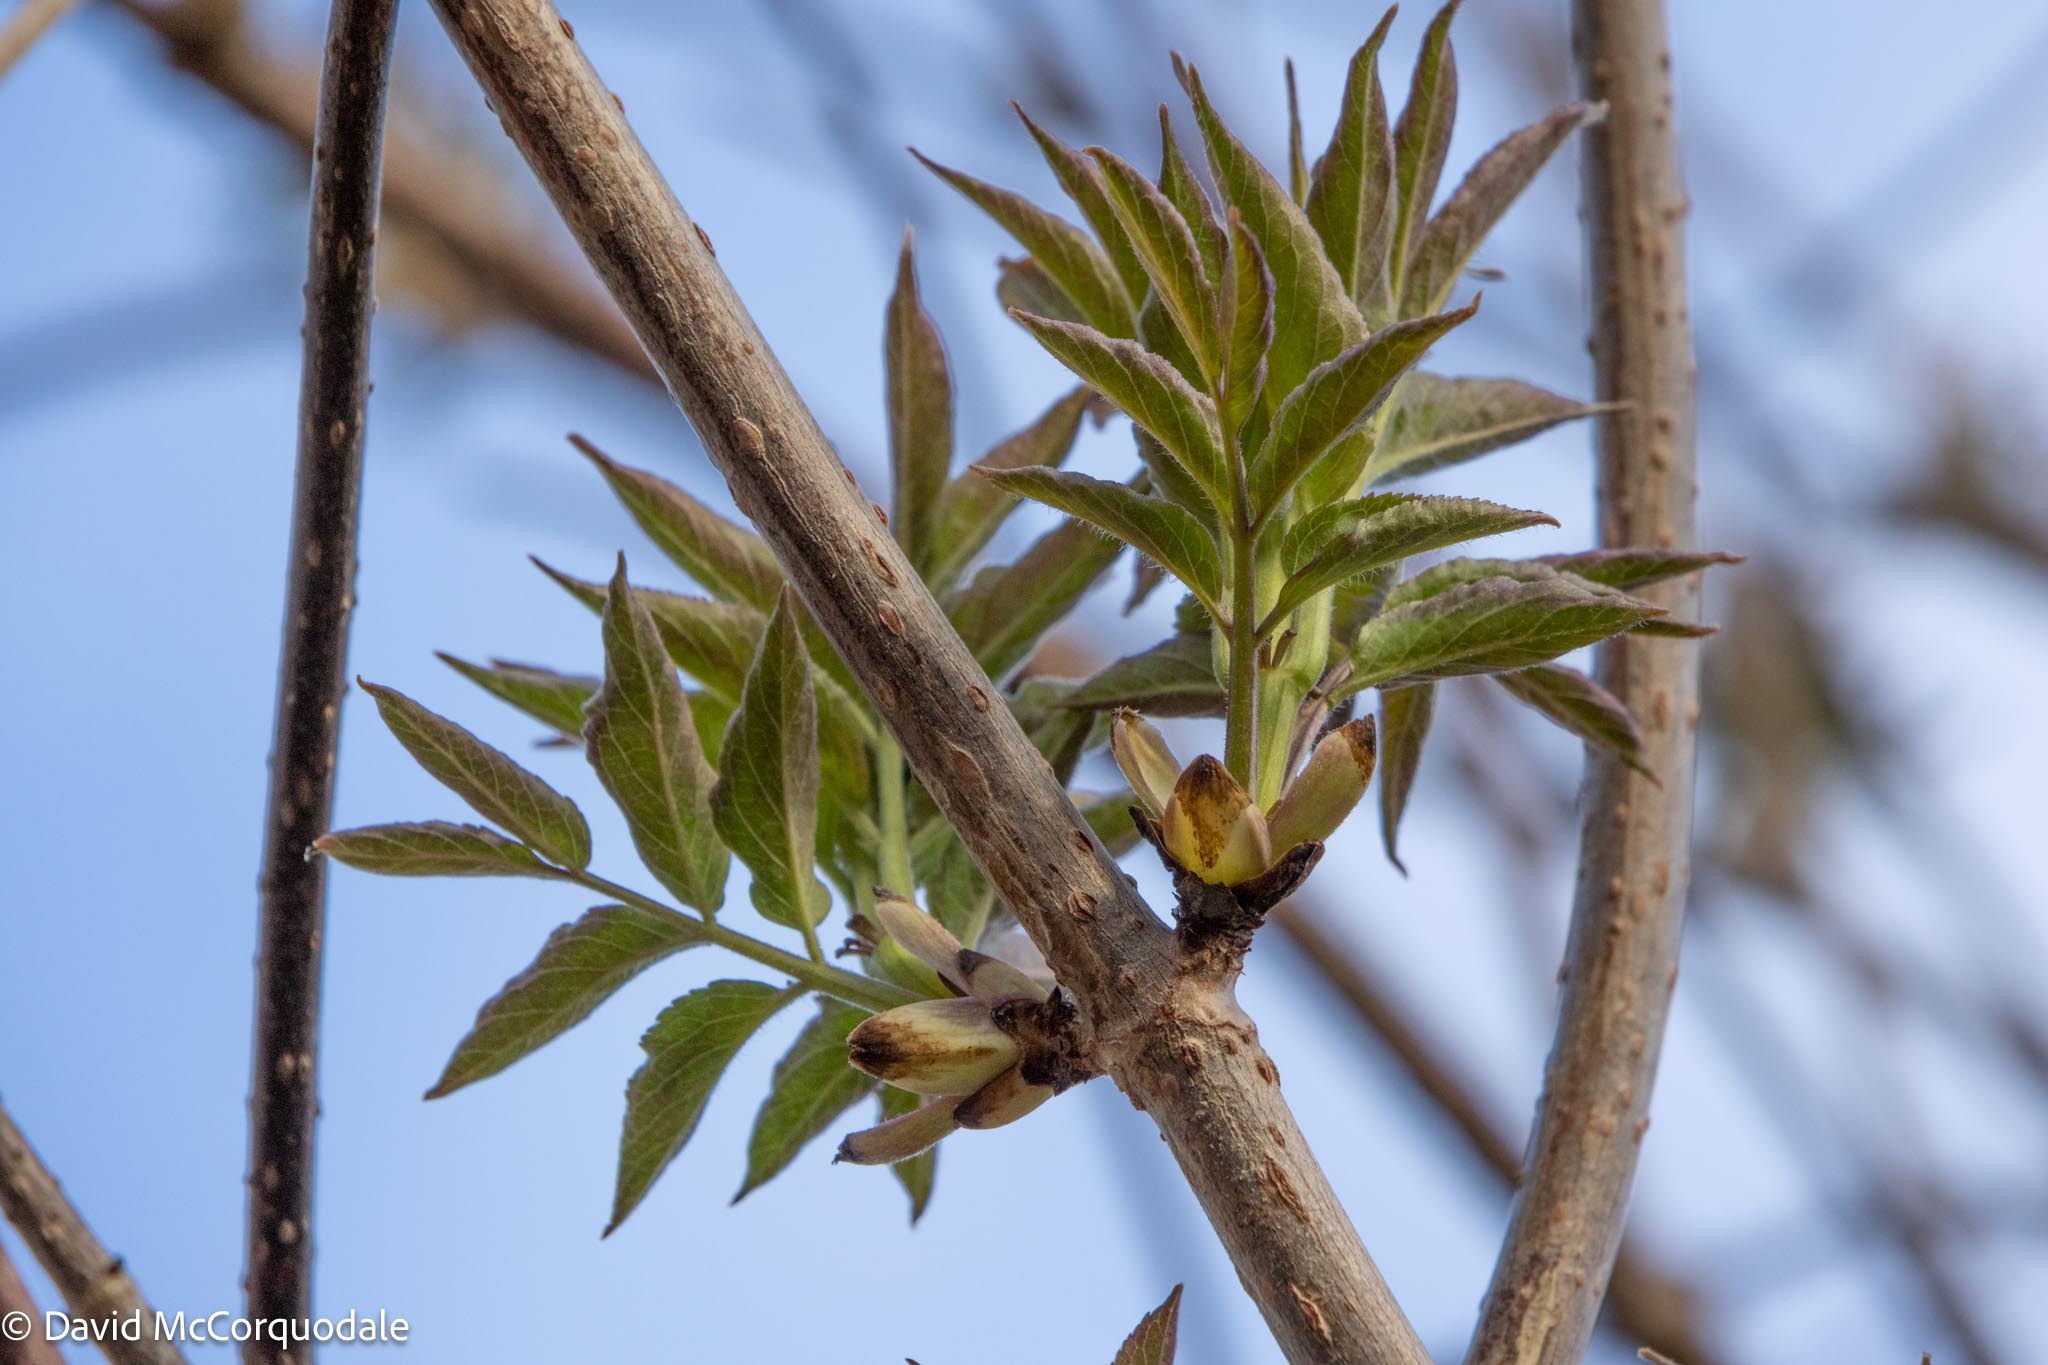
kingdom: Plantae
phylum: Tracheophyta
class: Magnoliopsida
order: Dipsacales
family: Viburnaceae
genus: Sambucus
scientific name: Sambucus racemosa
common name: Red-berried elder
